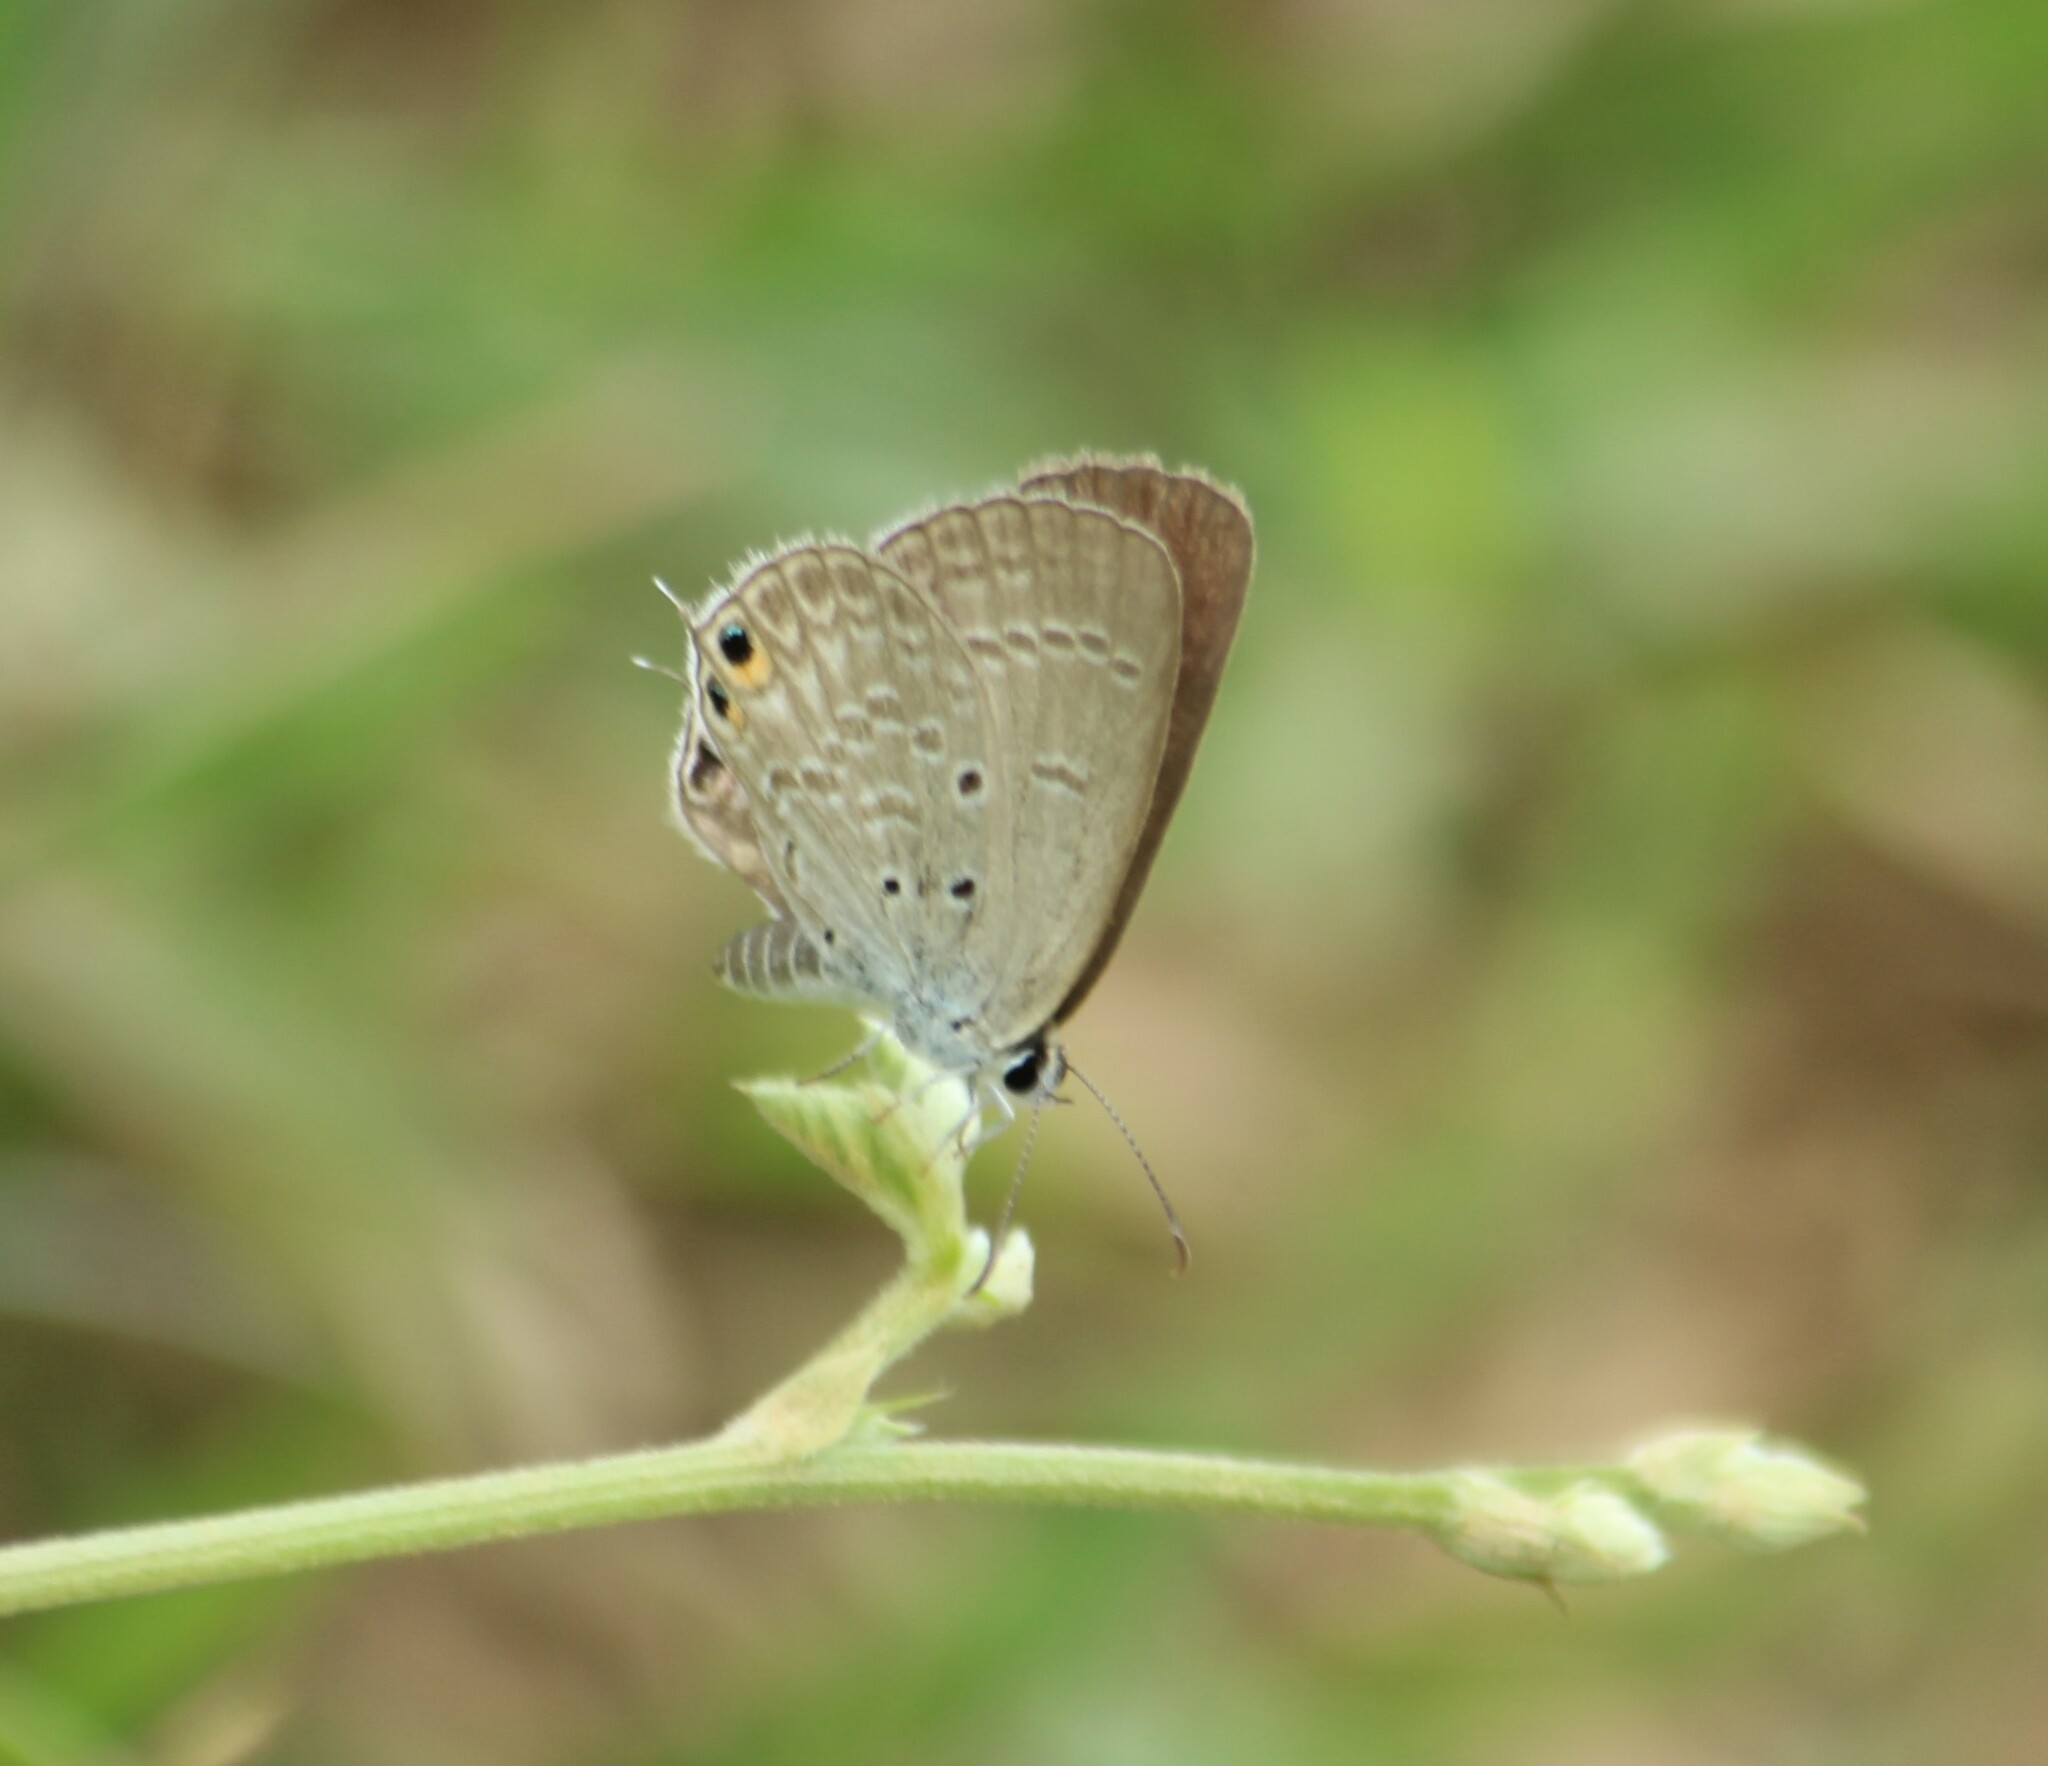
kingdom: Animalia
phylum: Arthropoda
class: Insecta
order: Lepidoptera
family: Lycaenidae
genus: Euchrysops
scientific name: Euchrysops cnejus
